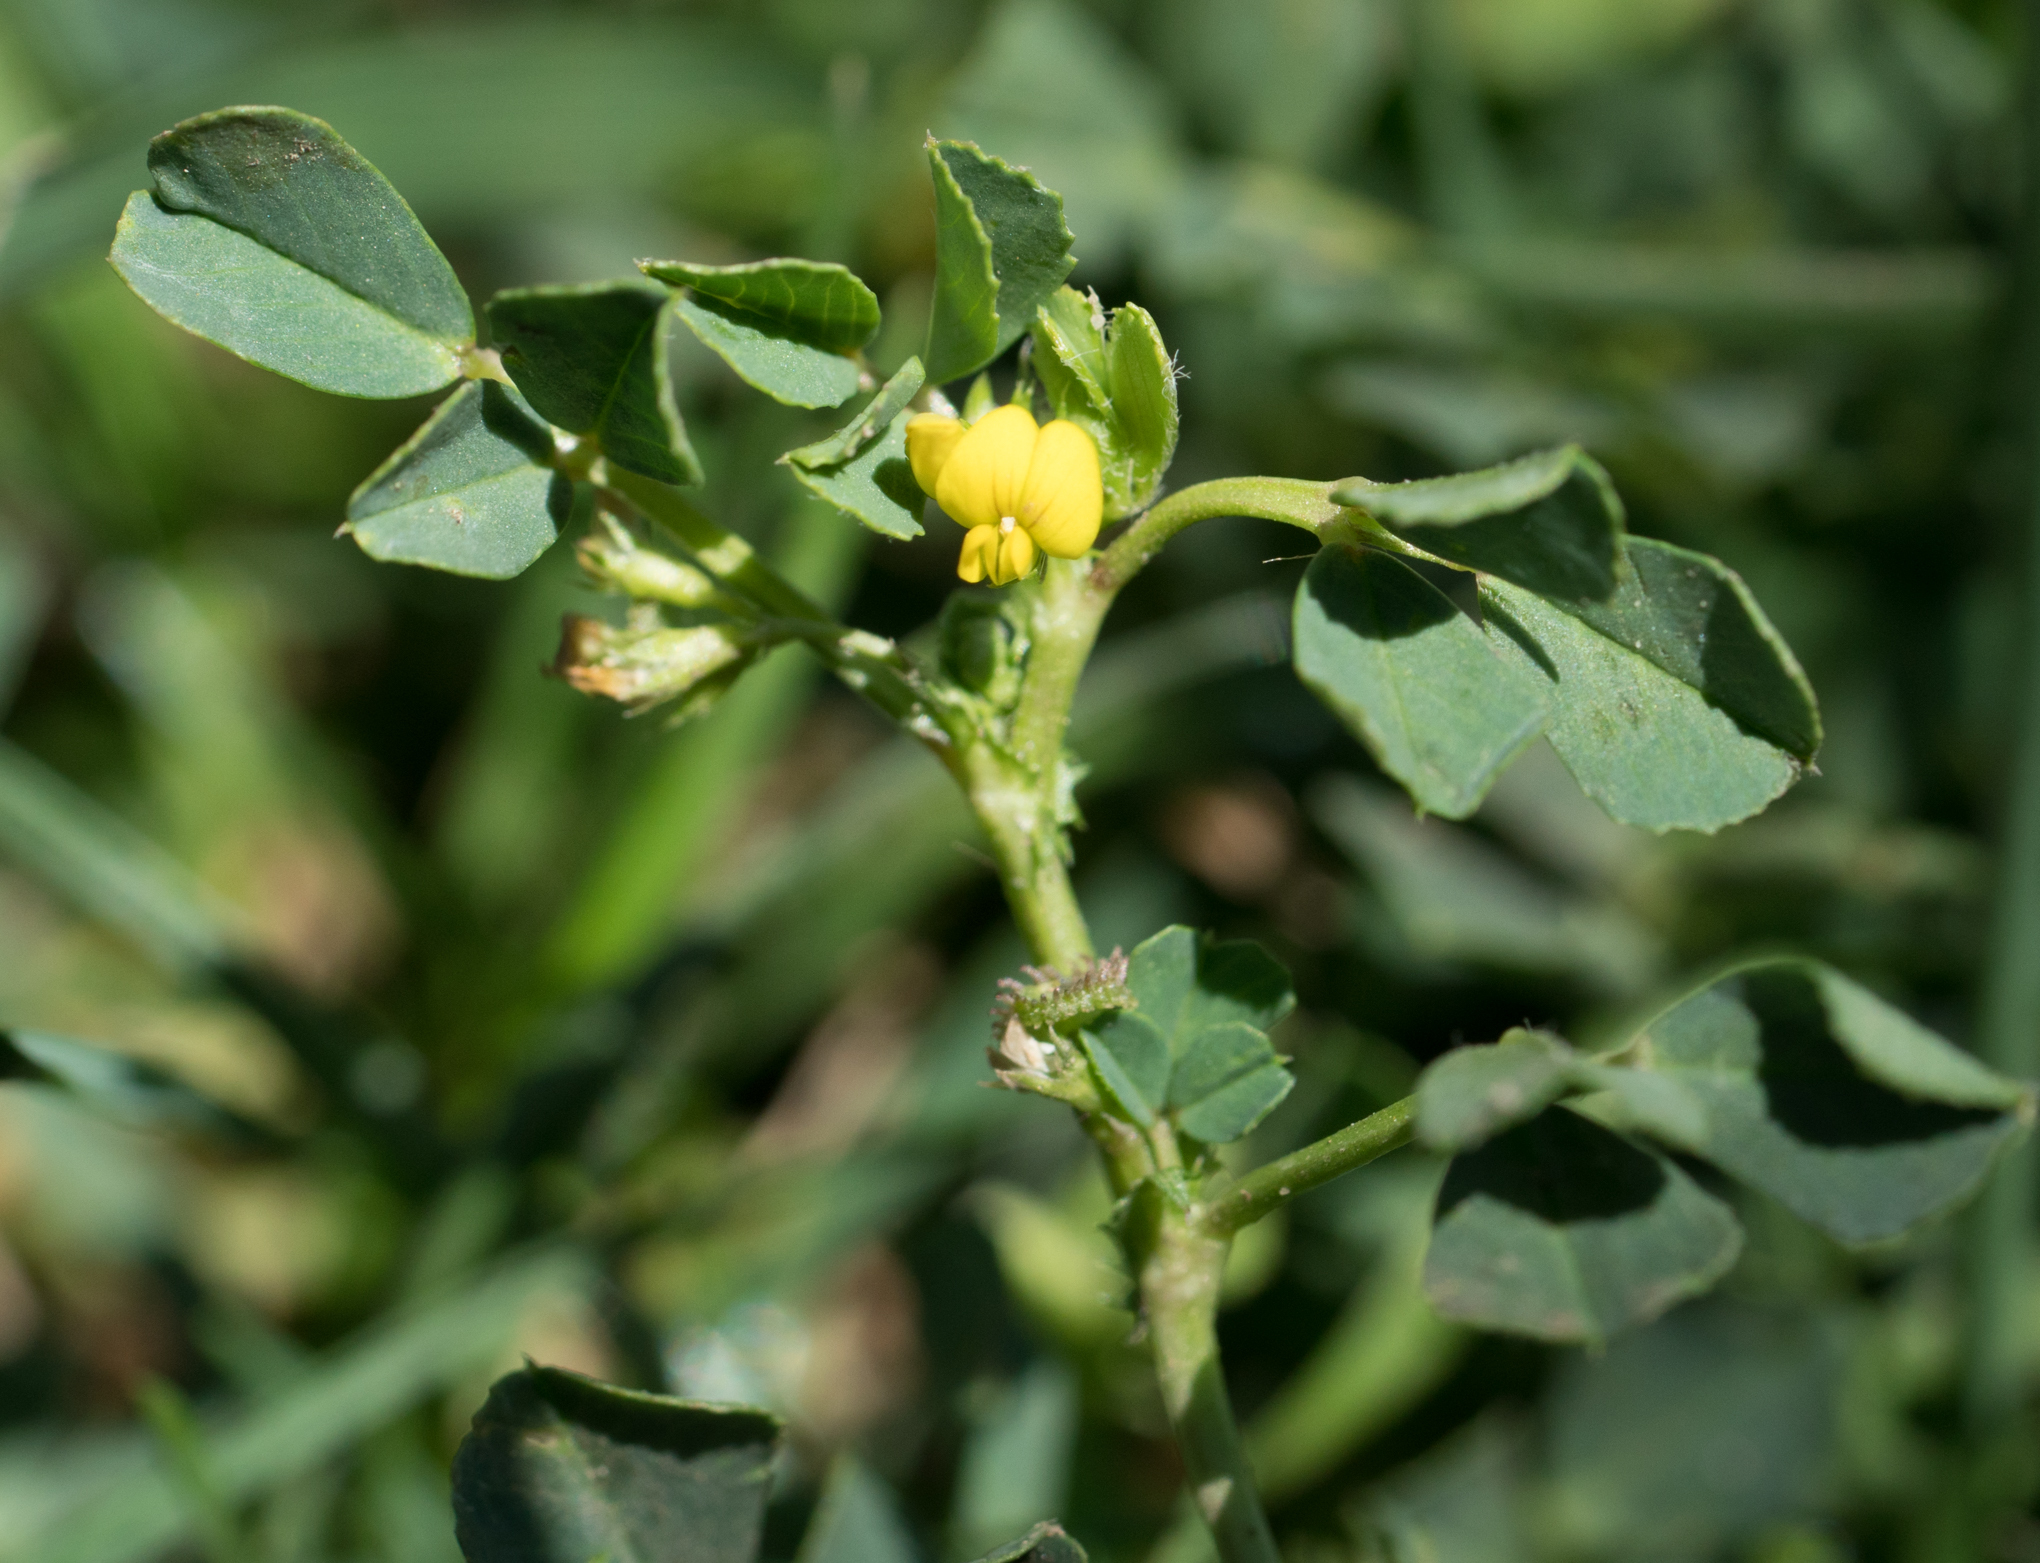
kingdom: Plantae
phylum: Tracheophyta
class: Magnoliopsida
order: Fabales
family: Fabaceae
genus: Medicago
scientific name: Medicago polymorpha
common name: Burclover
